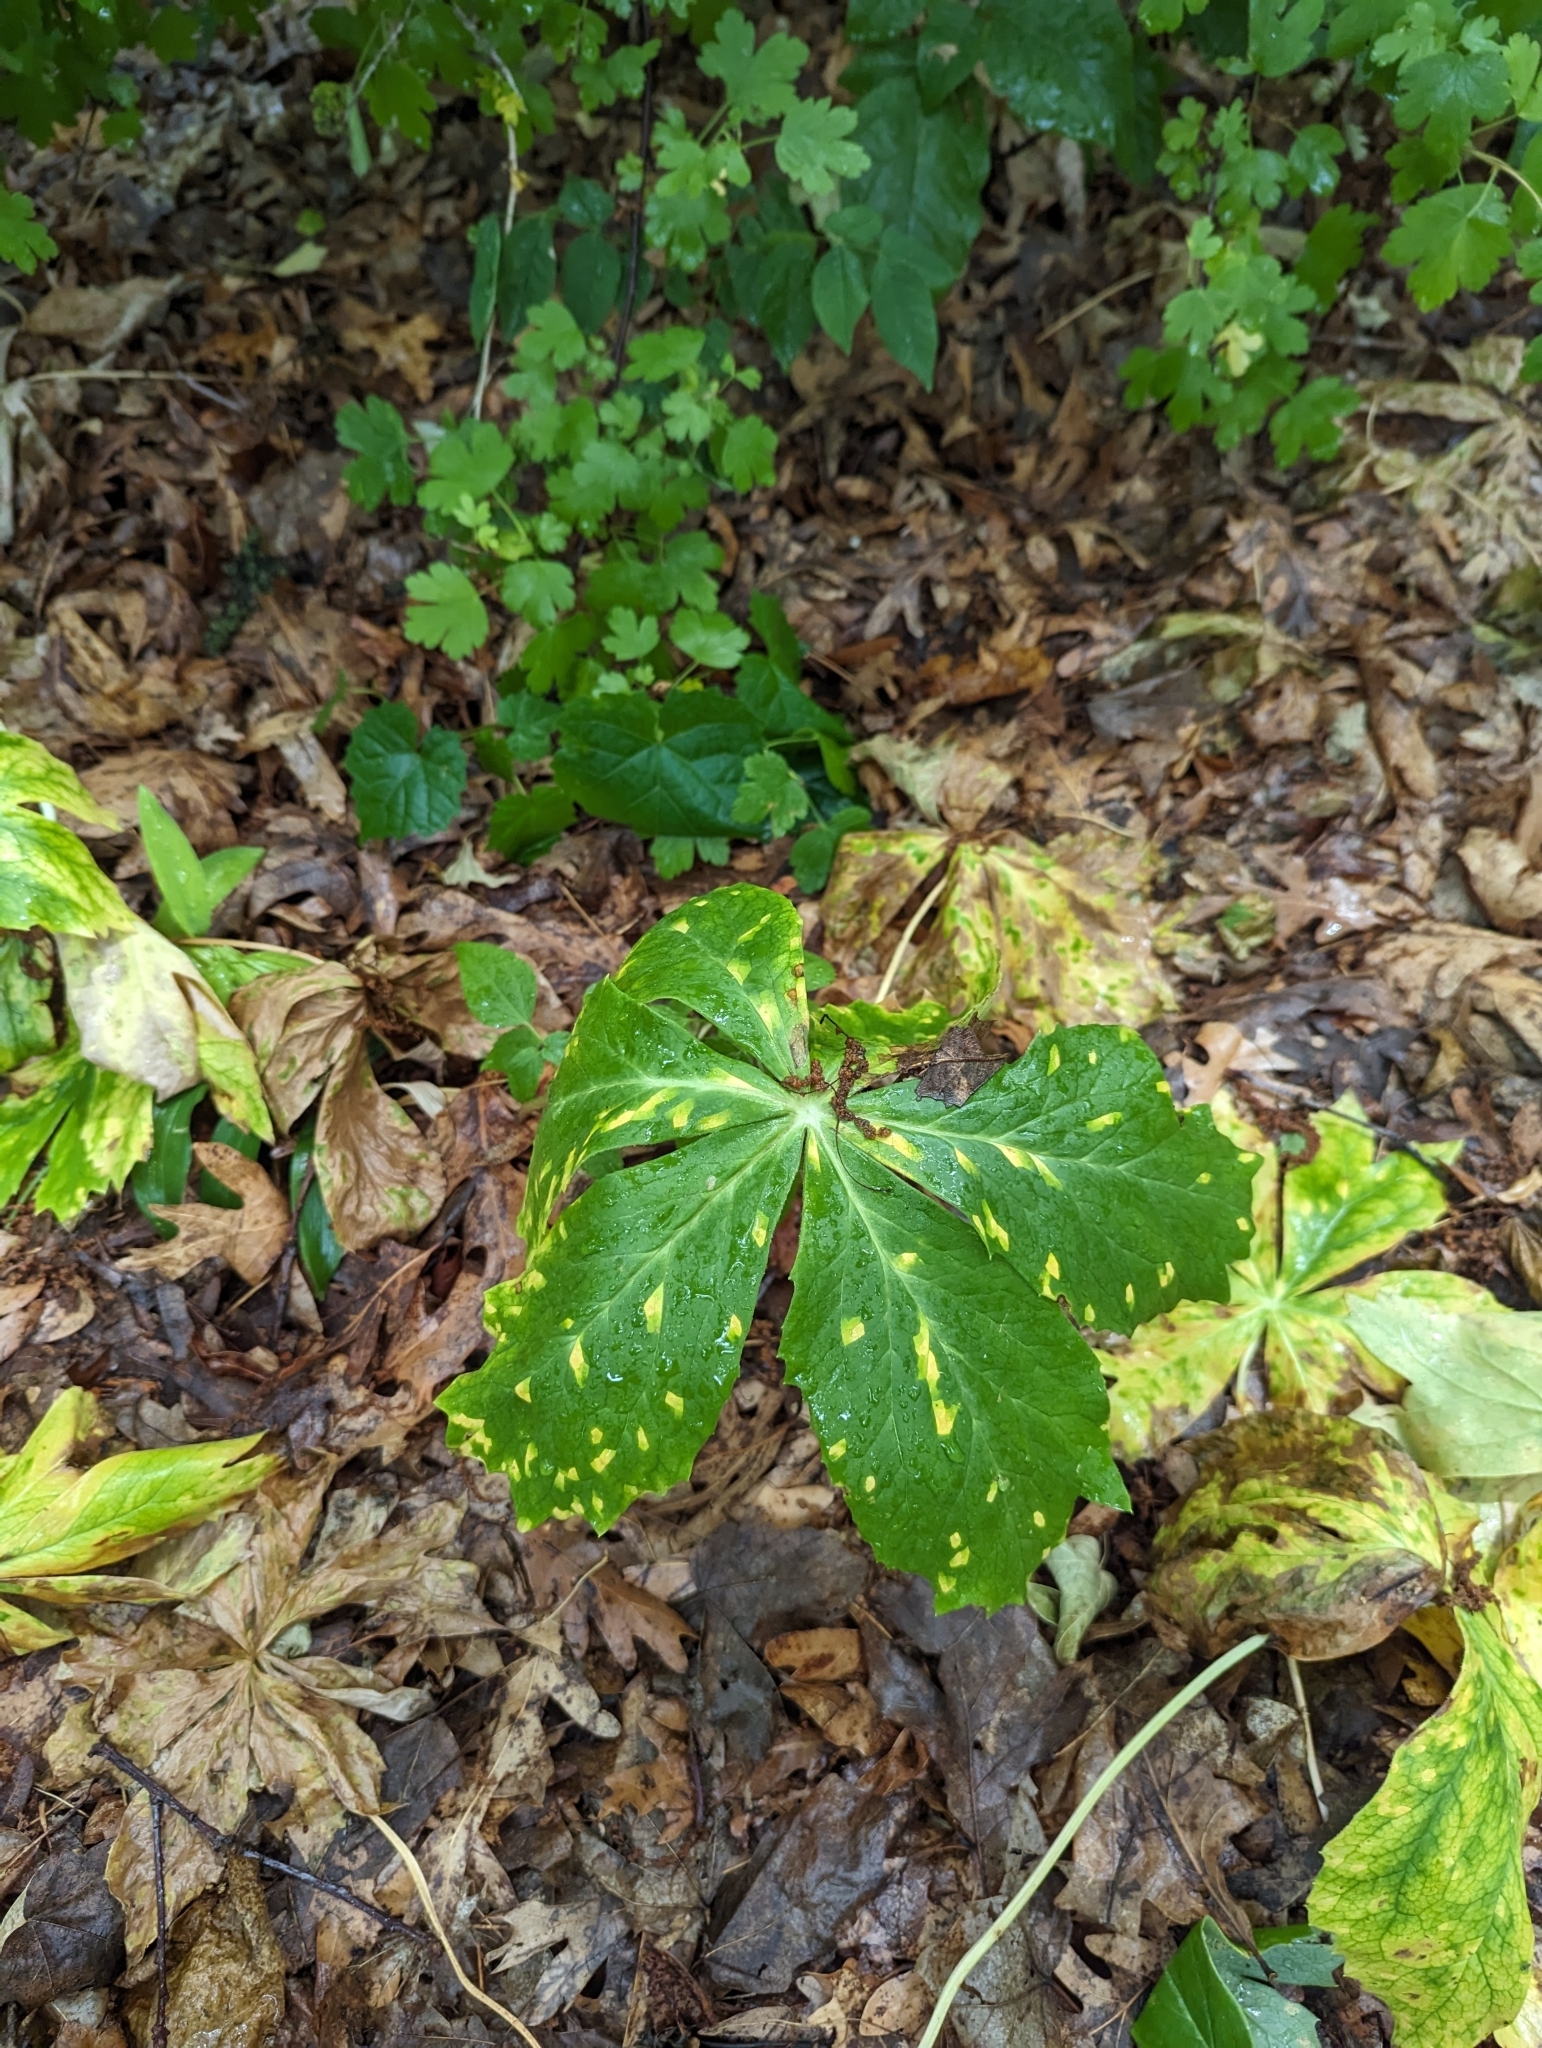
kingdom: Plantae
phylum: Tracheophyta
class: Magnoliopsida
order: Ranunculales
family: Berberidaceae
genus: Podophyllum
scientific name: Podophyllum peltatum
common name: Wild mandrake
